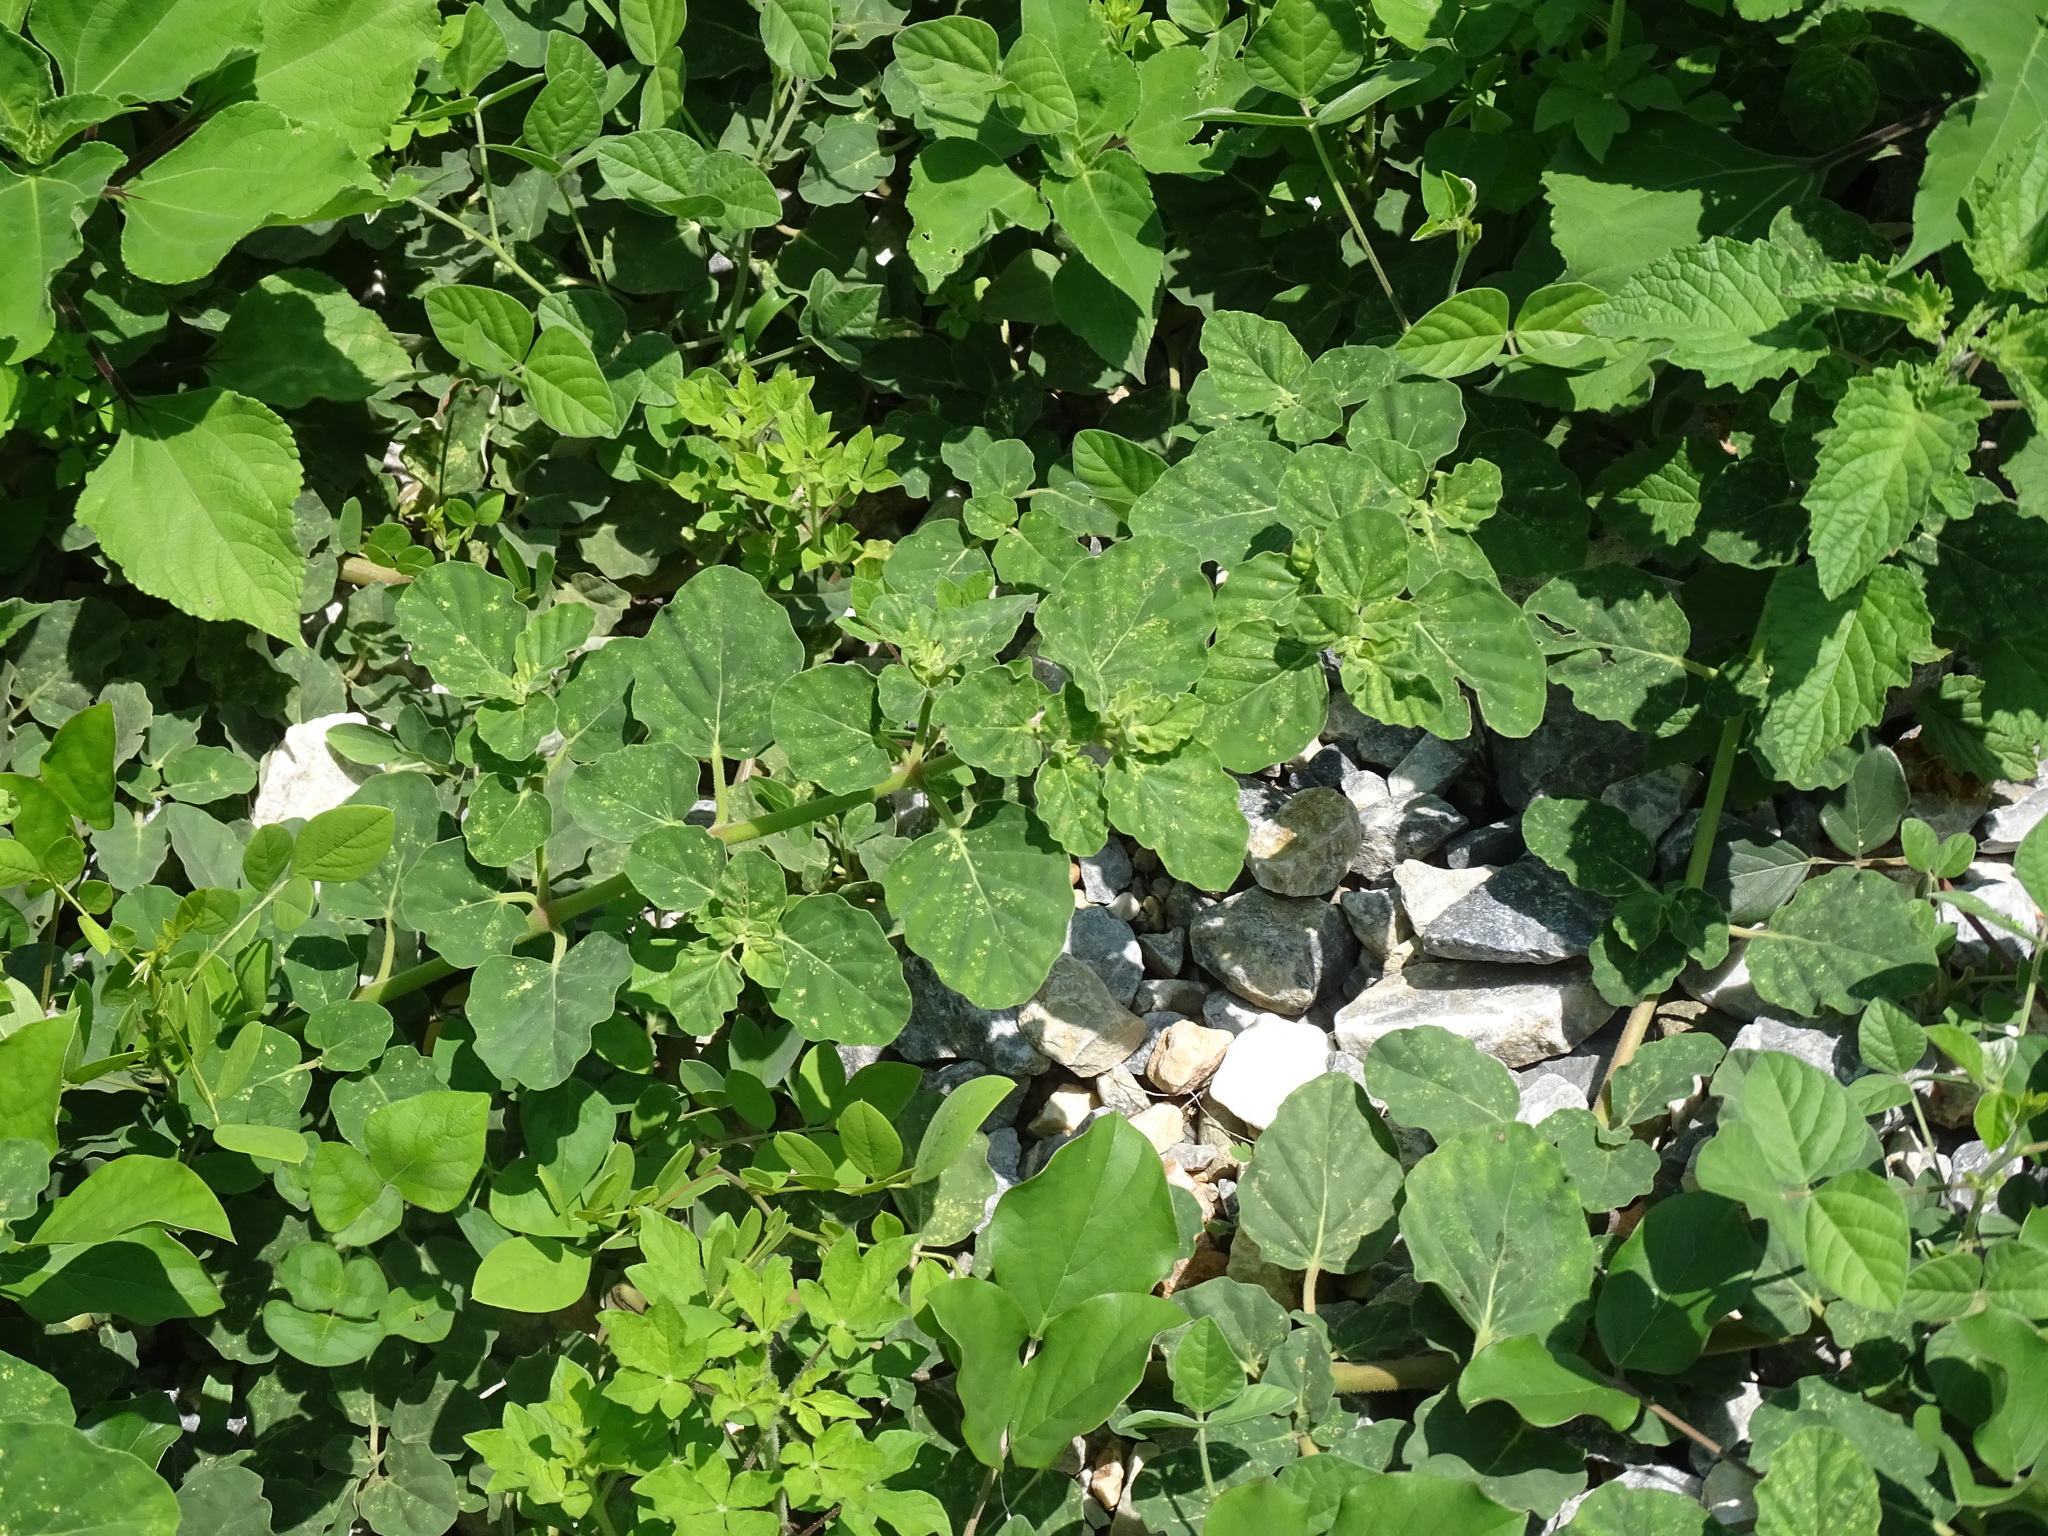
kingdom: Plantae
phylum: Tracheophyta
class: Magnoliopsida
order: Caryophyllales
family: Nyctaginaceae
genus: Boerhavia
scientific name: Boerhavia coccinea
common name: Scarlet spiderling
